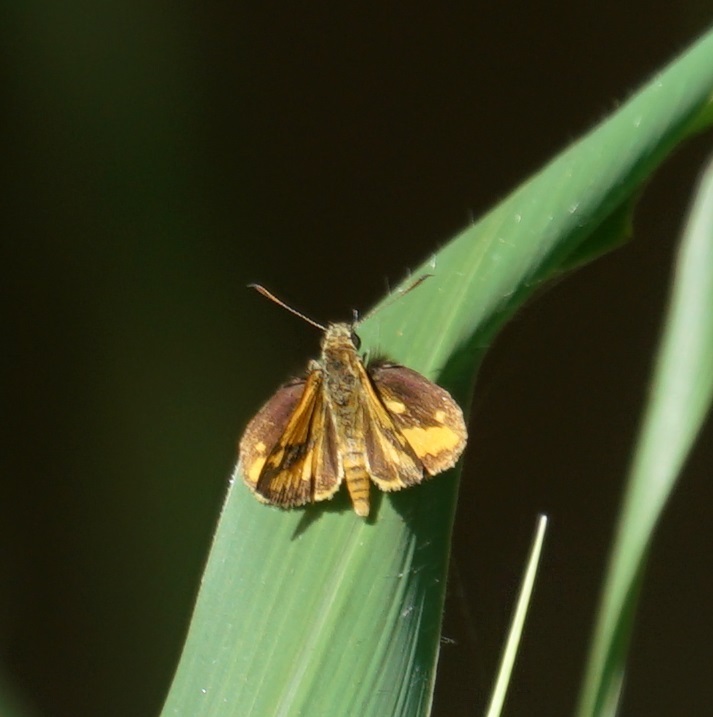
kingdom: Animalia
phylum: Arthropoda
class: Insecta
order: Lepidoptera
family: Hesperiidae
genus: Suniana
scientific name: Suniana sunias
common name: Wide-brand grass-dart
